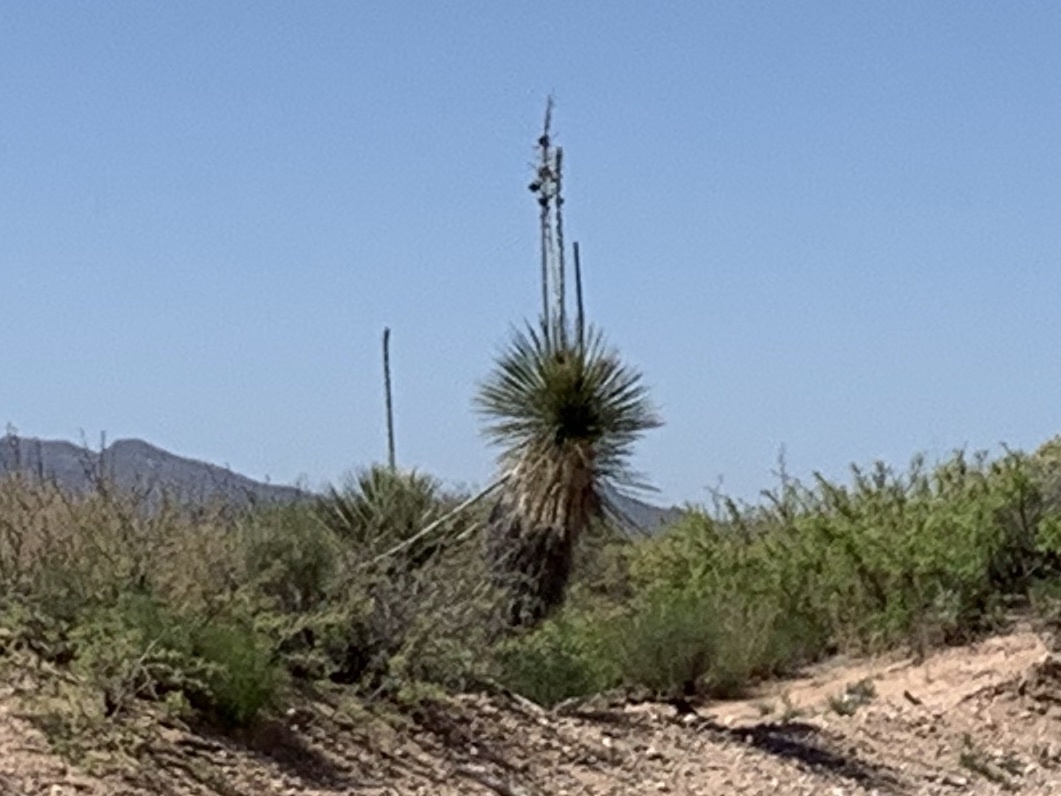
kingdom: Plantae
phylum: Tracheophyta
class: Liliopsida
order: Asparagales
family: Asparagaceae
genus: Yucca
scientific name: Yucca elata
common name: Palmella
